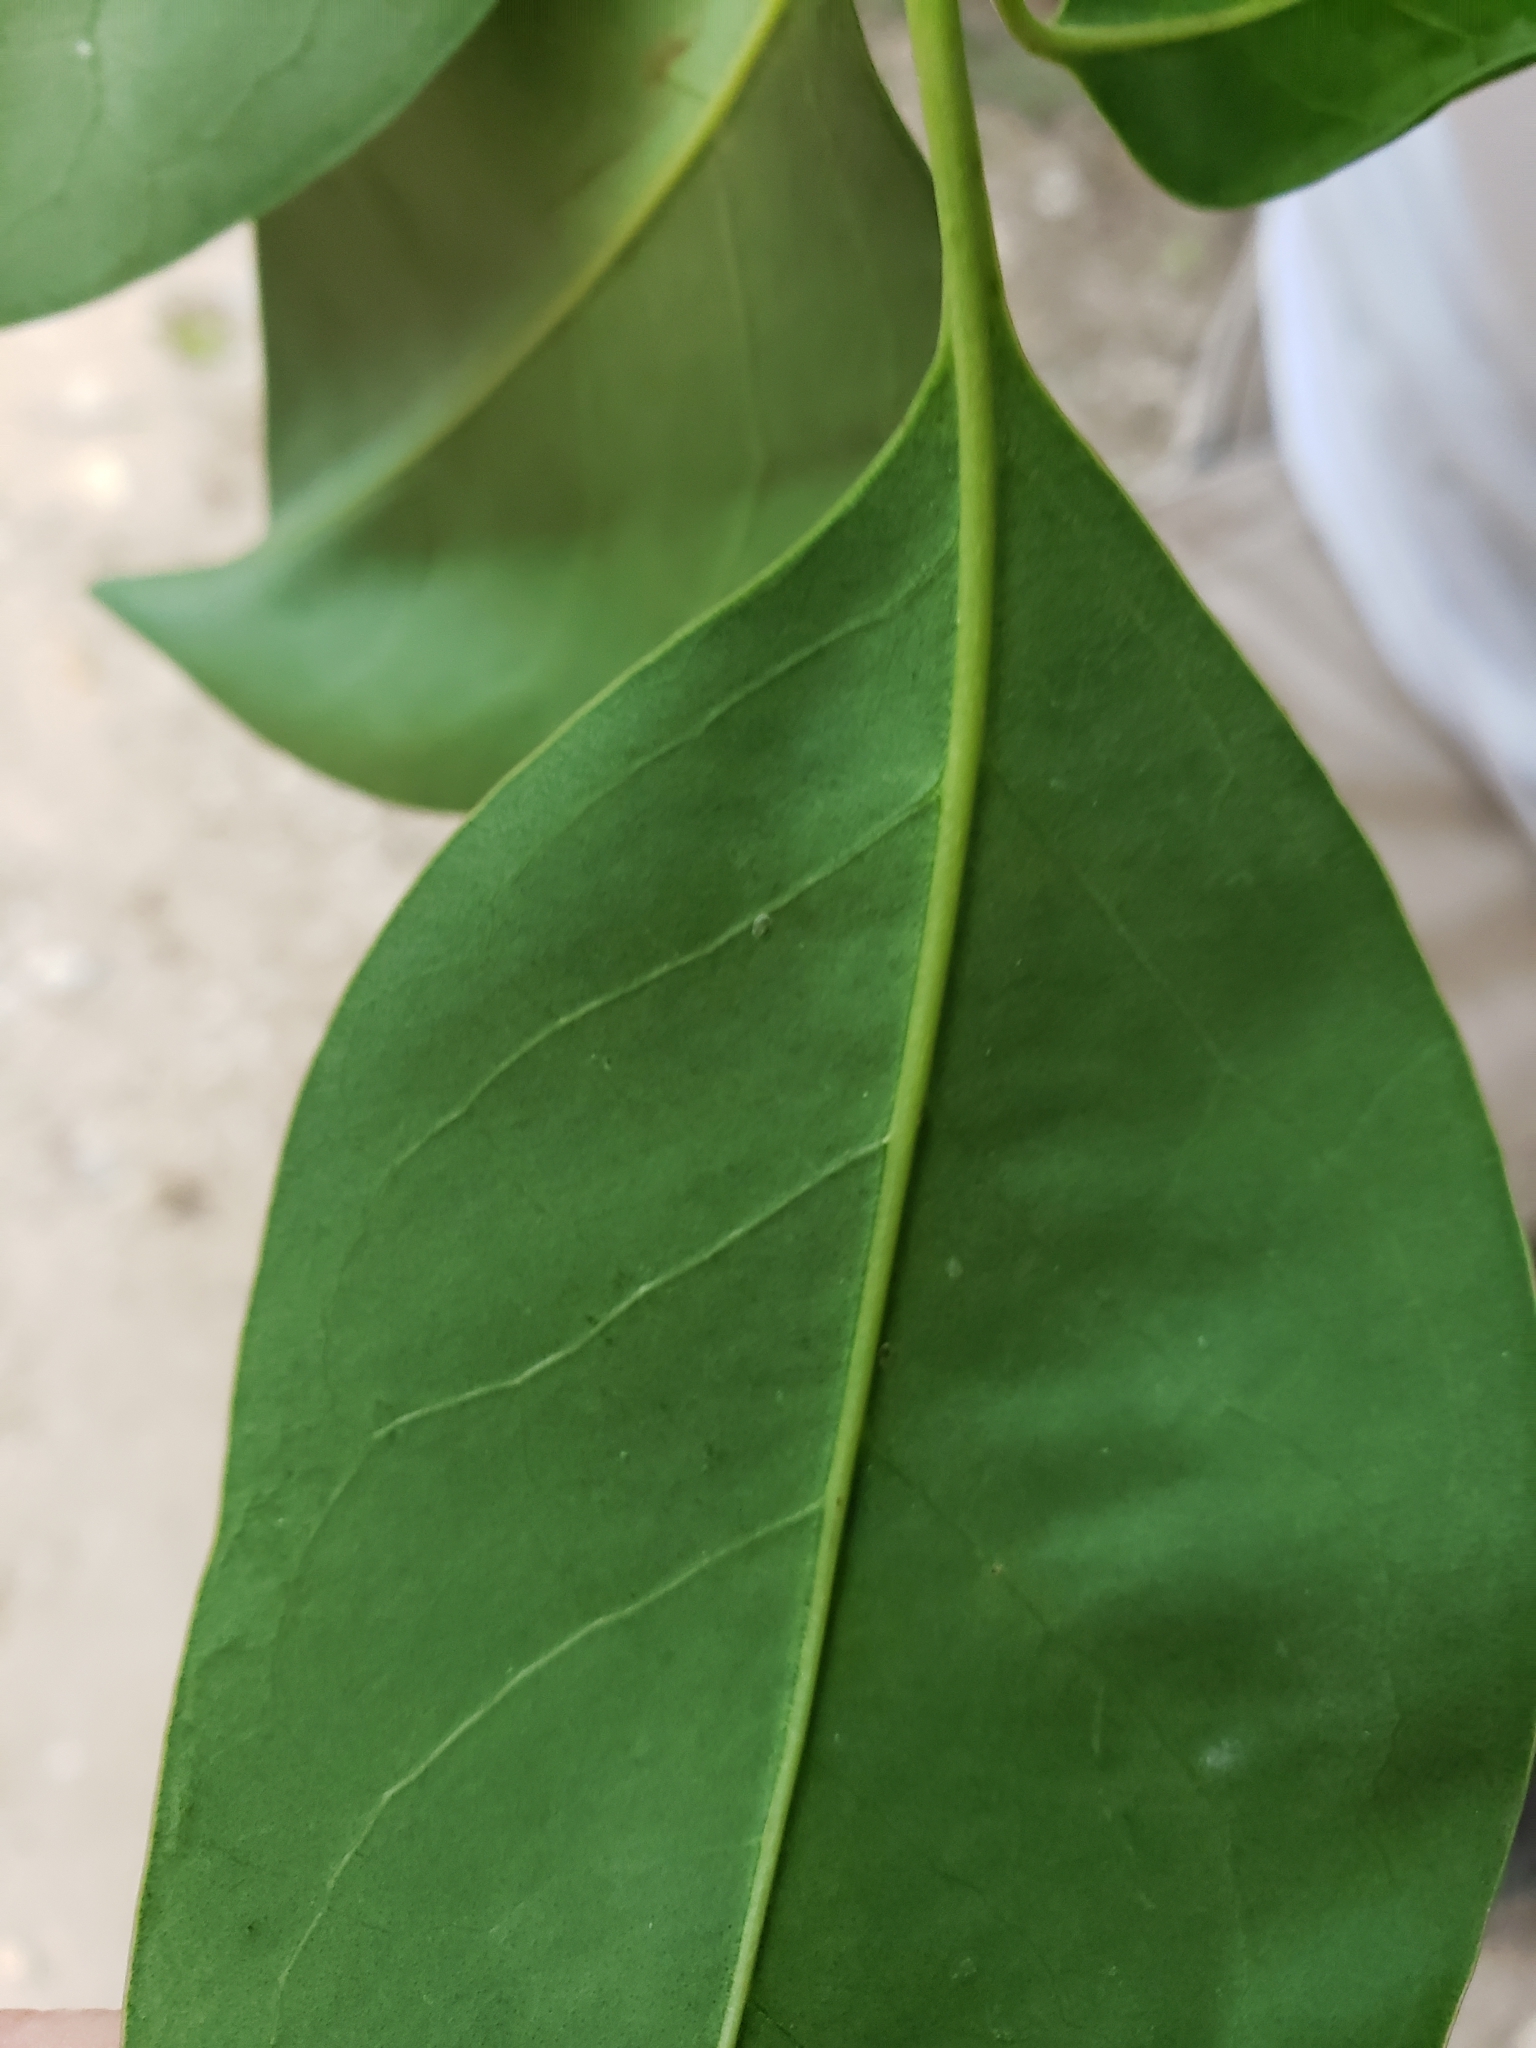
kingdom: Plantae
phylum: Tracheophyta
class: Magnoliopsida
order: Lamiales
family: Oleaceae
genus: Ligustrum
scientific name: Ligustrum lucidum
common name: Glossy privet
